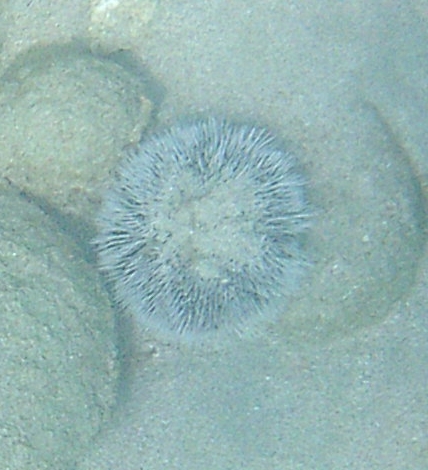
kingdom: Animalia
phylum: Echinodermata
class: Echinoidea
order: Camarodonta
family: Toxopneustidae
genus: Tripneustes
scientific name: Tripneustes ventricosus
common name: West indian sea egg
